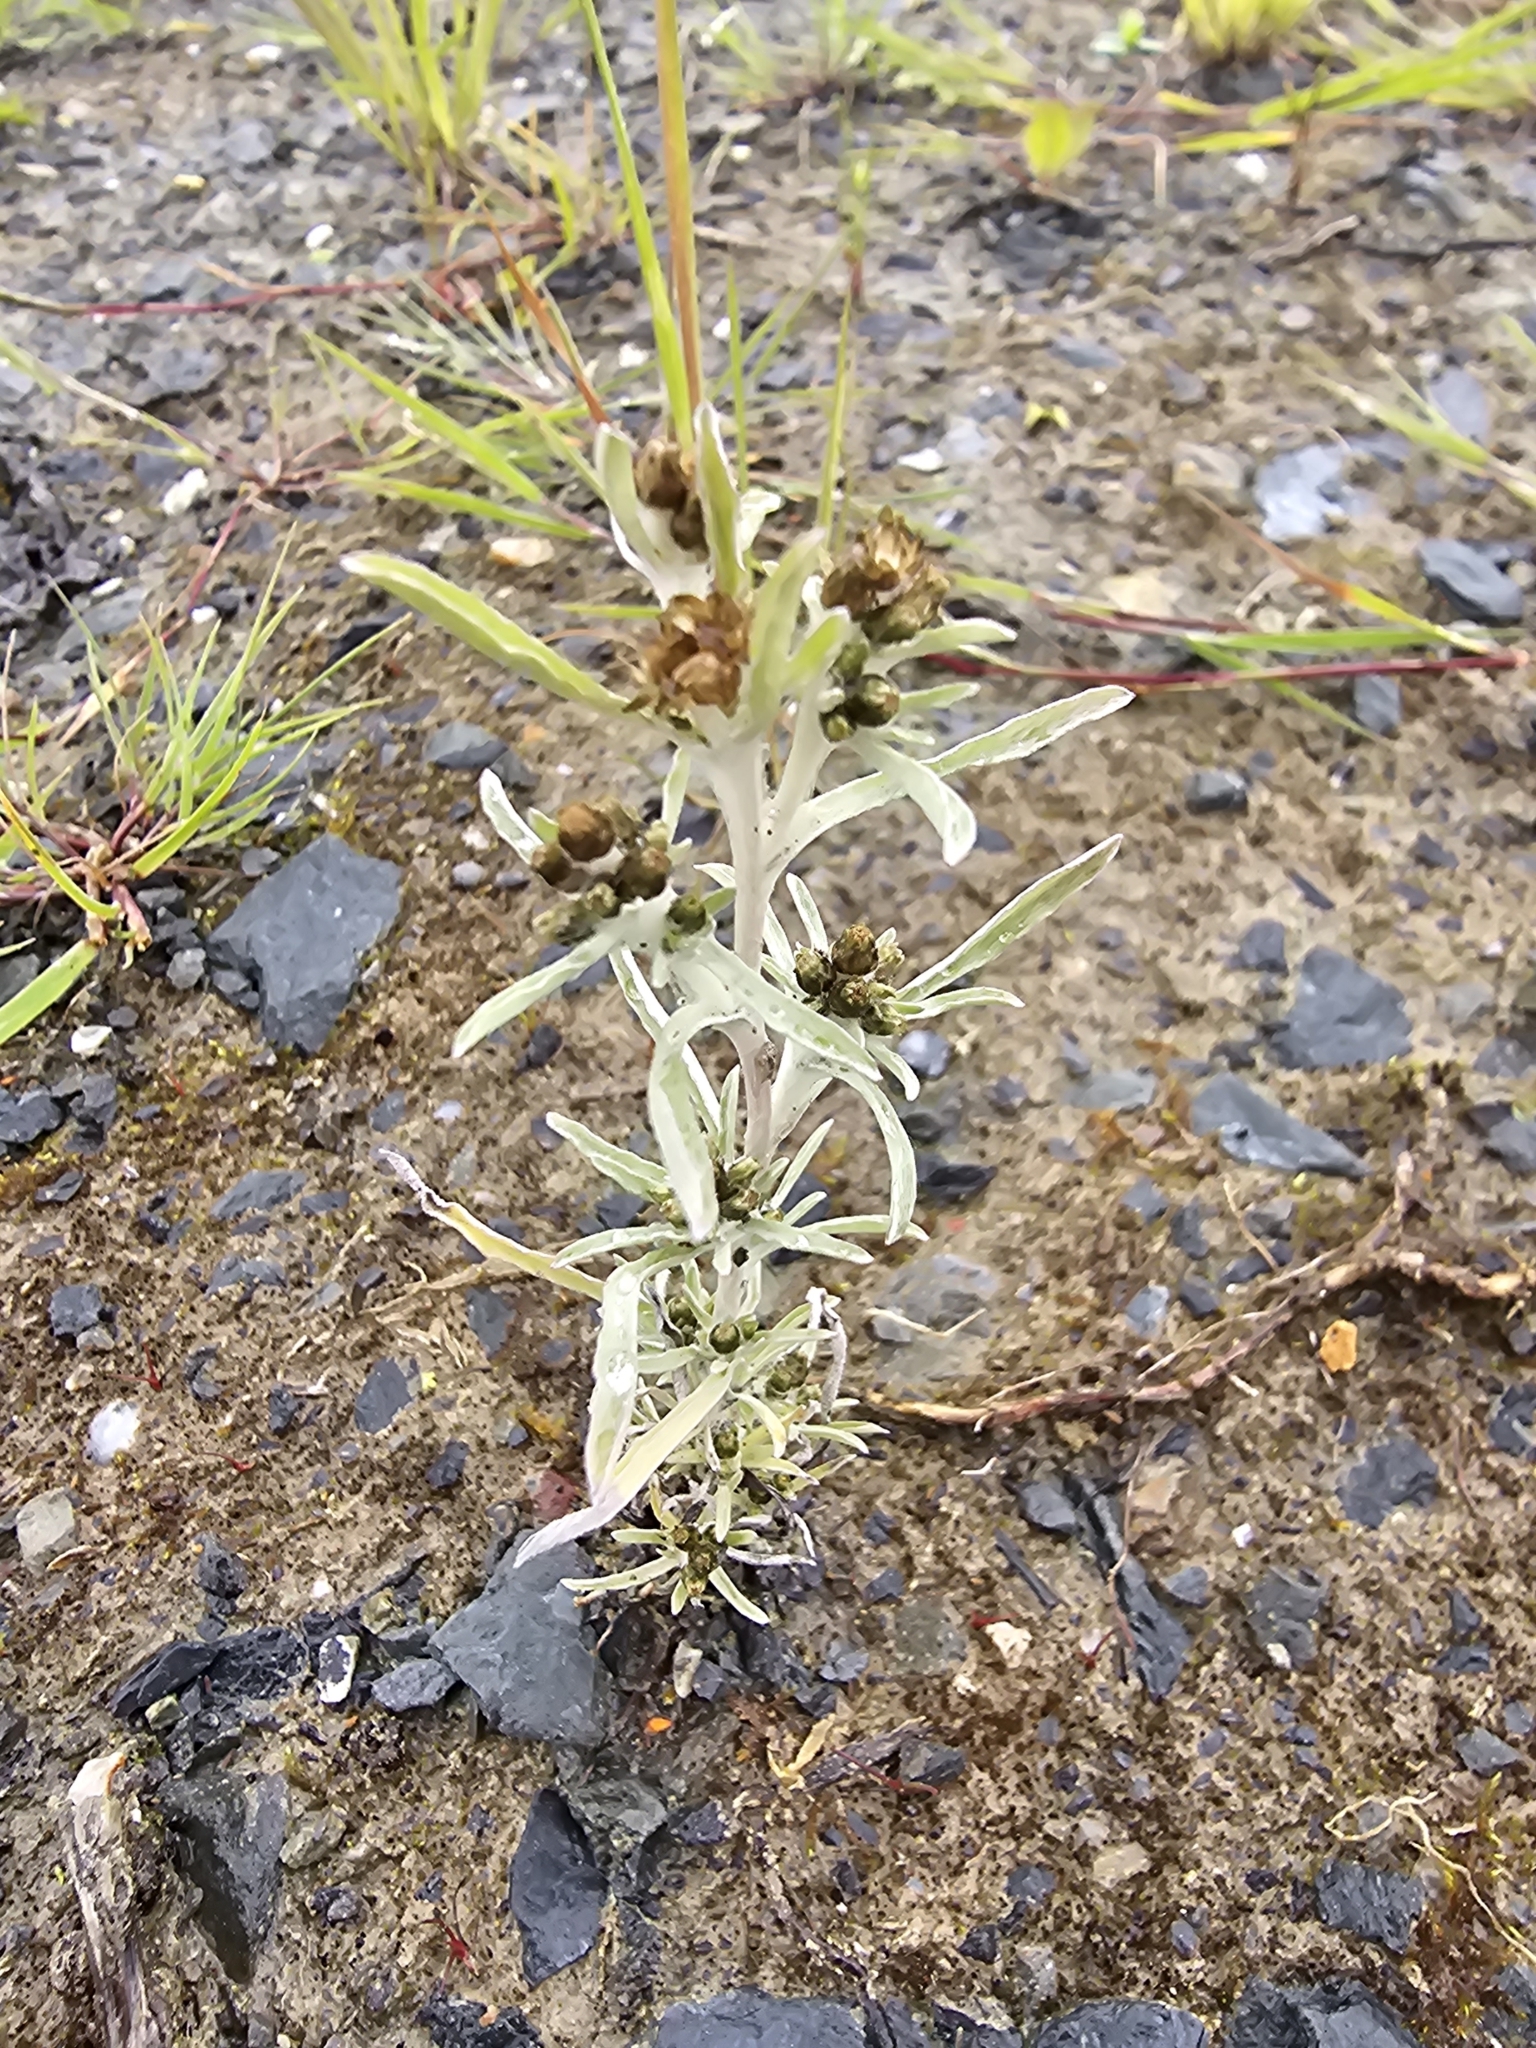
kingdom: Plantae
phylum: Tracheophyta
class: Magnoliopsida
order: Asterales
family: Asteraceae
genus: Gnaphalium
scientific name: Gnaphalium uliginosum
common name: Marsh cudweed
